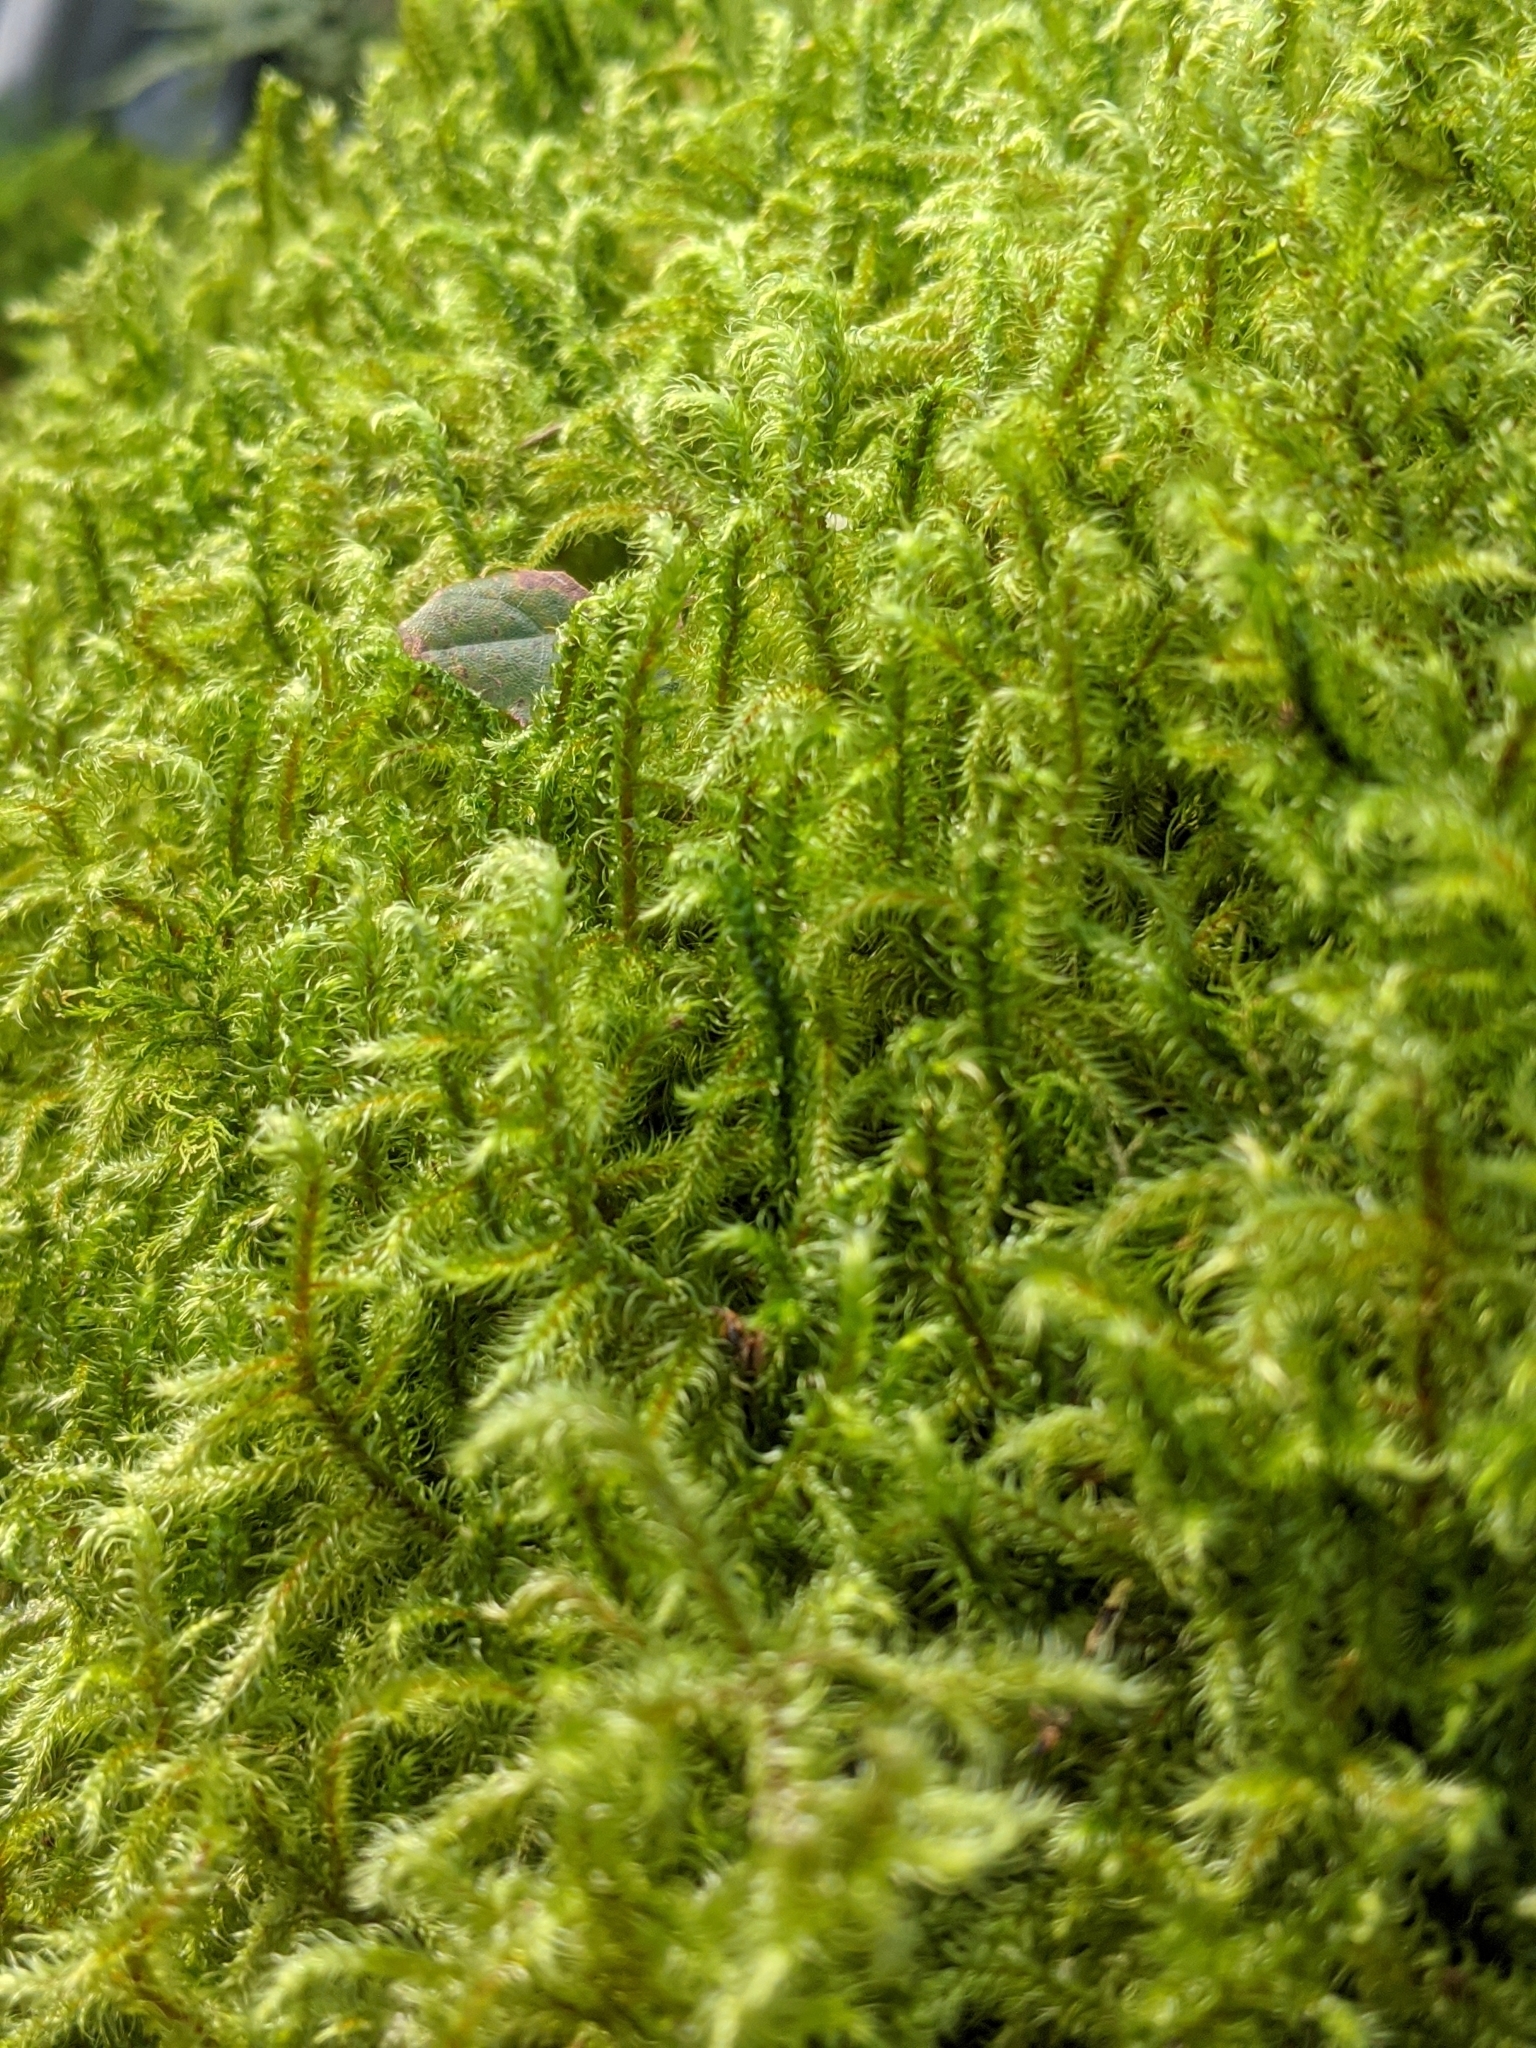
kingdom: Plantae
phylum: Bryophyta
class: Bryopsida
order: Hypnales
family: Hylocomiaceae
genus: Rhytidiadelphus
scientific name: Rhytidiadelphus loreus
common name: Lanky moss
